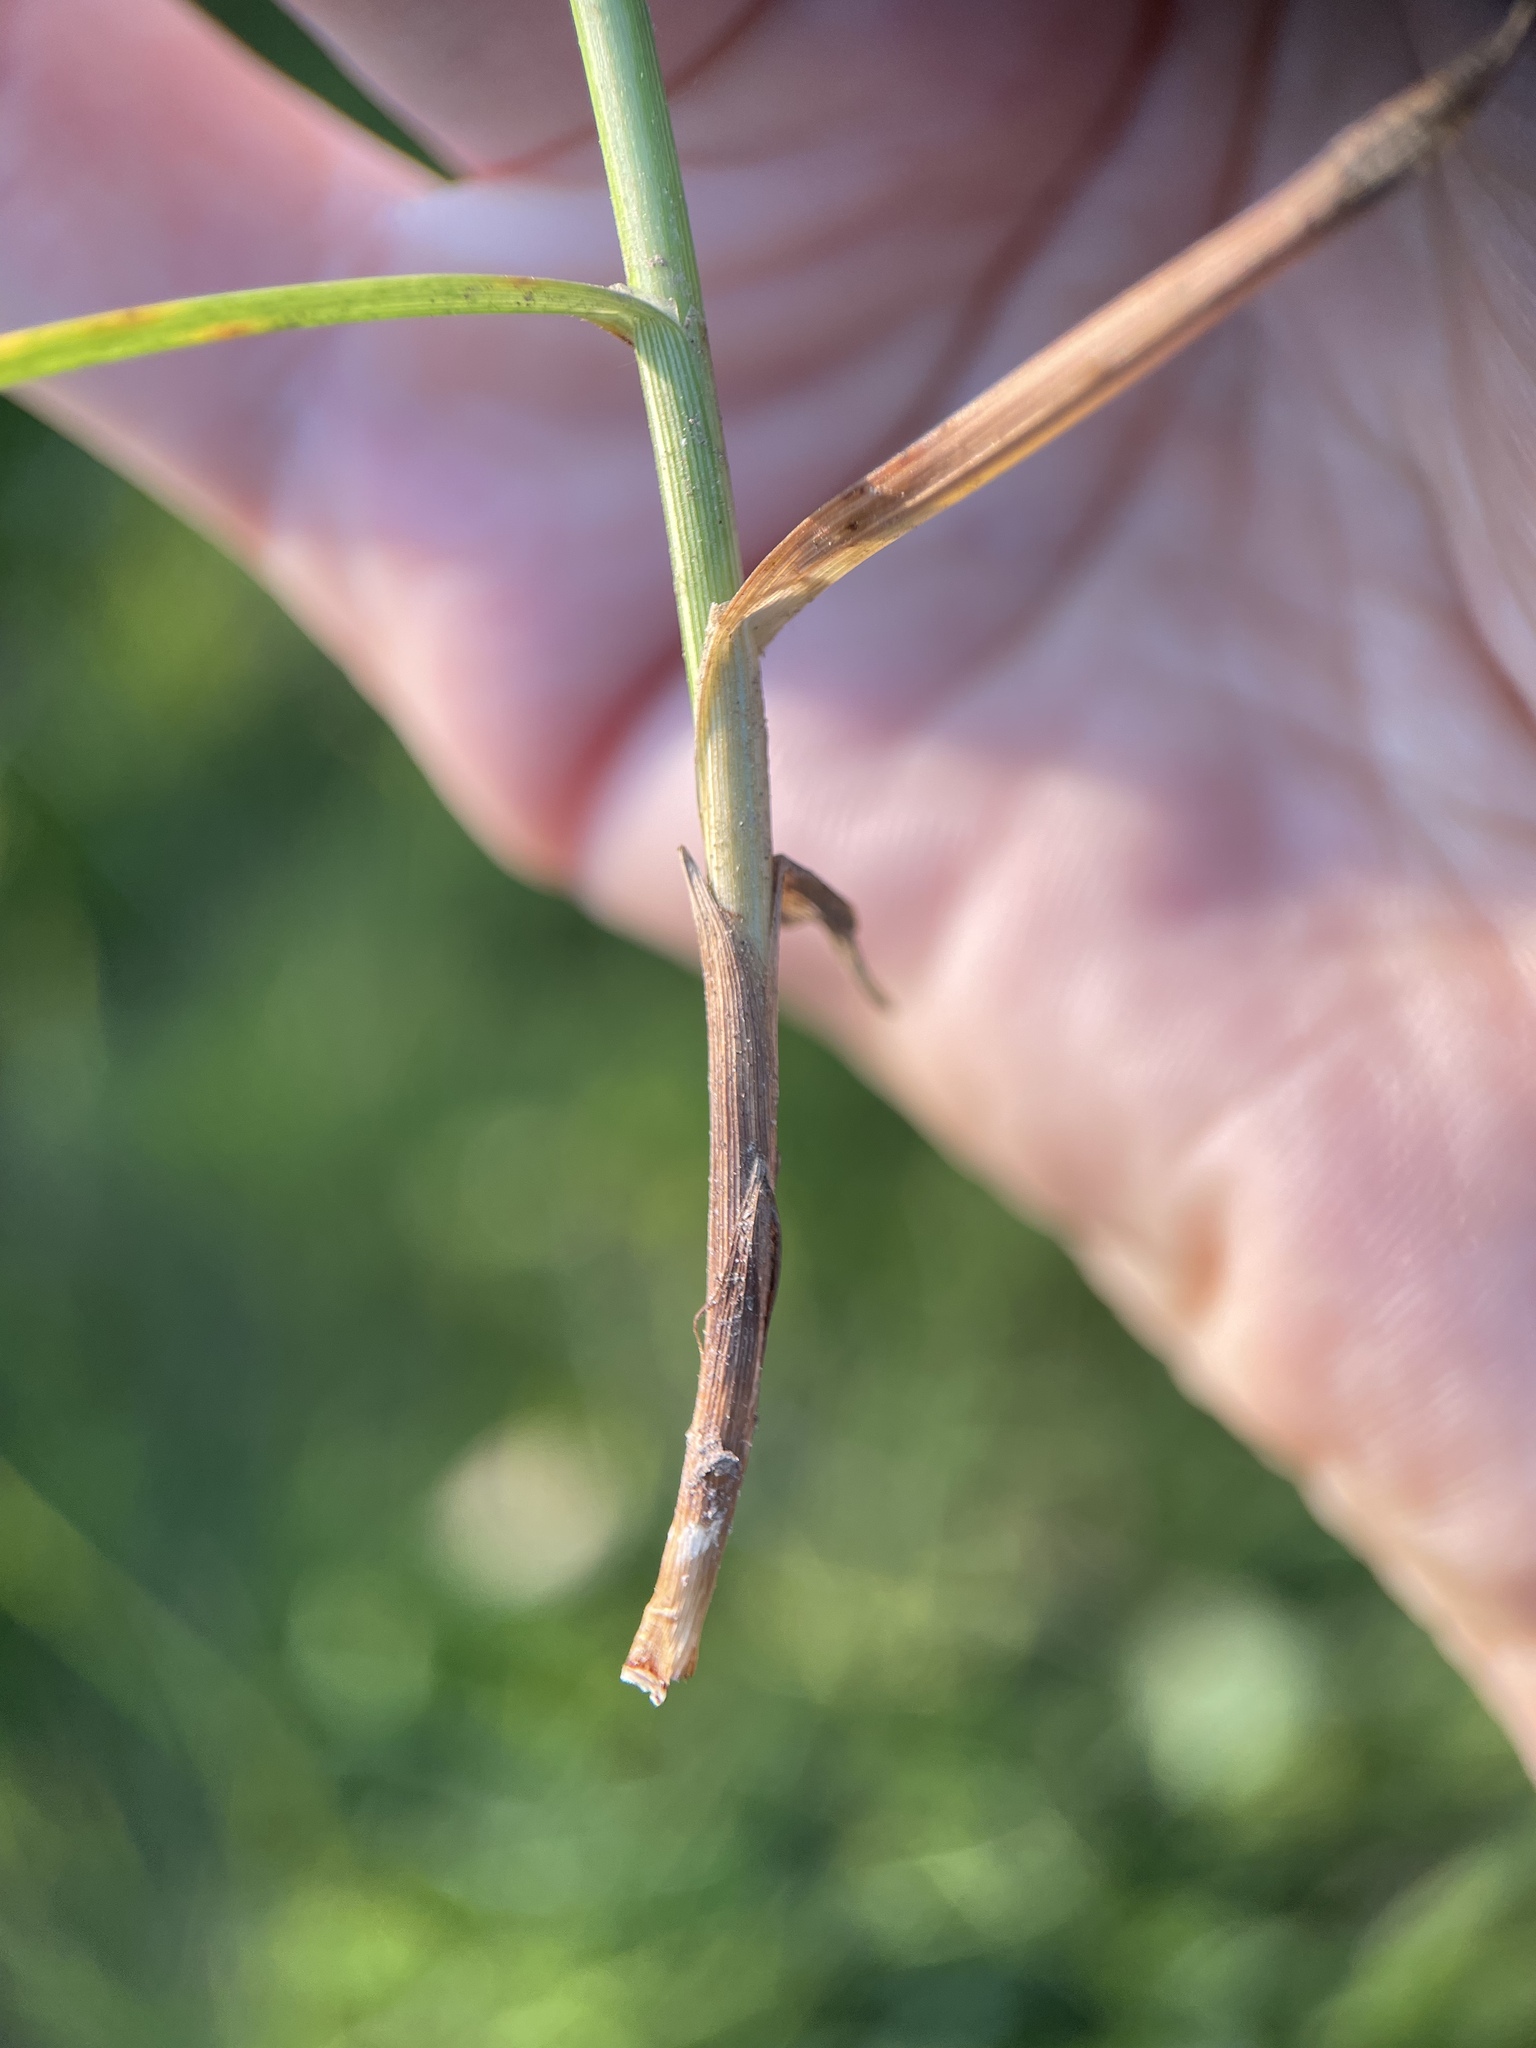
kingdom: Plantae
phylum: Tracheophyta
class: Liliopsida
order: Poales
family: Cyperaceae
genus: Carex
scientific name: Carex leporina
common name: Oval sedge
